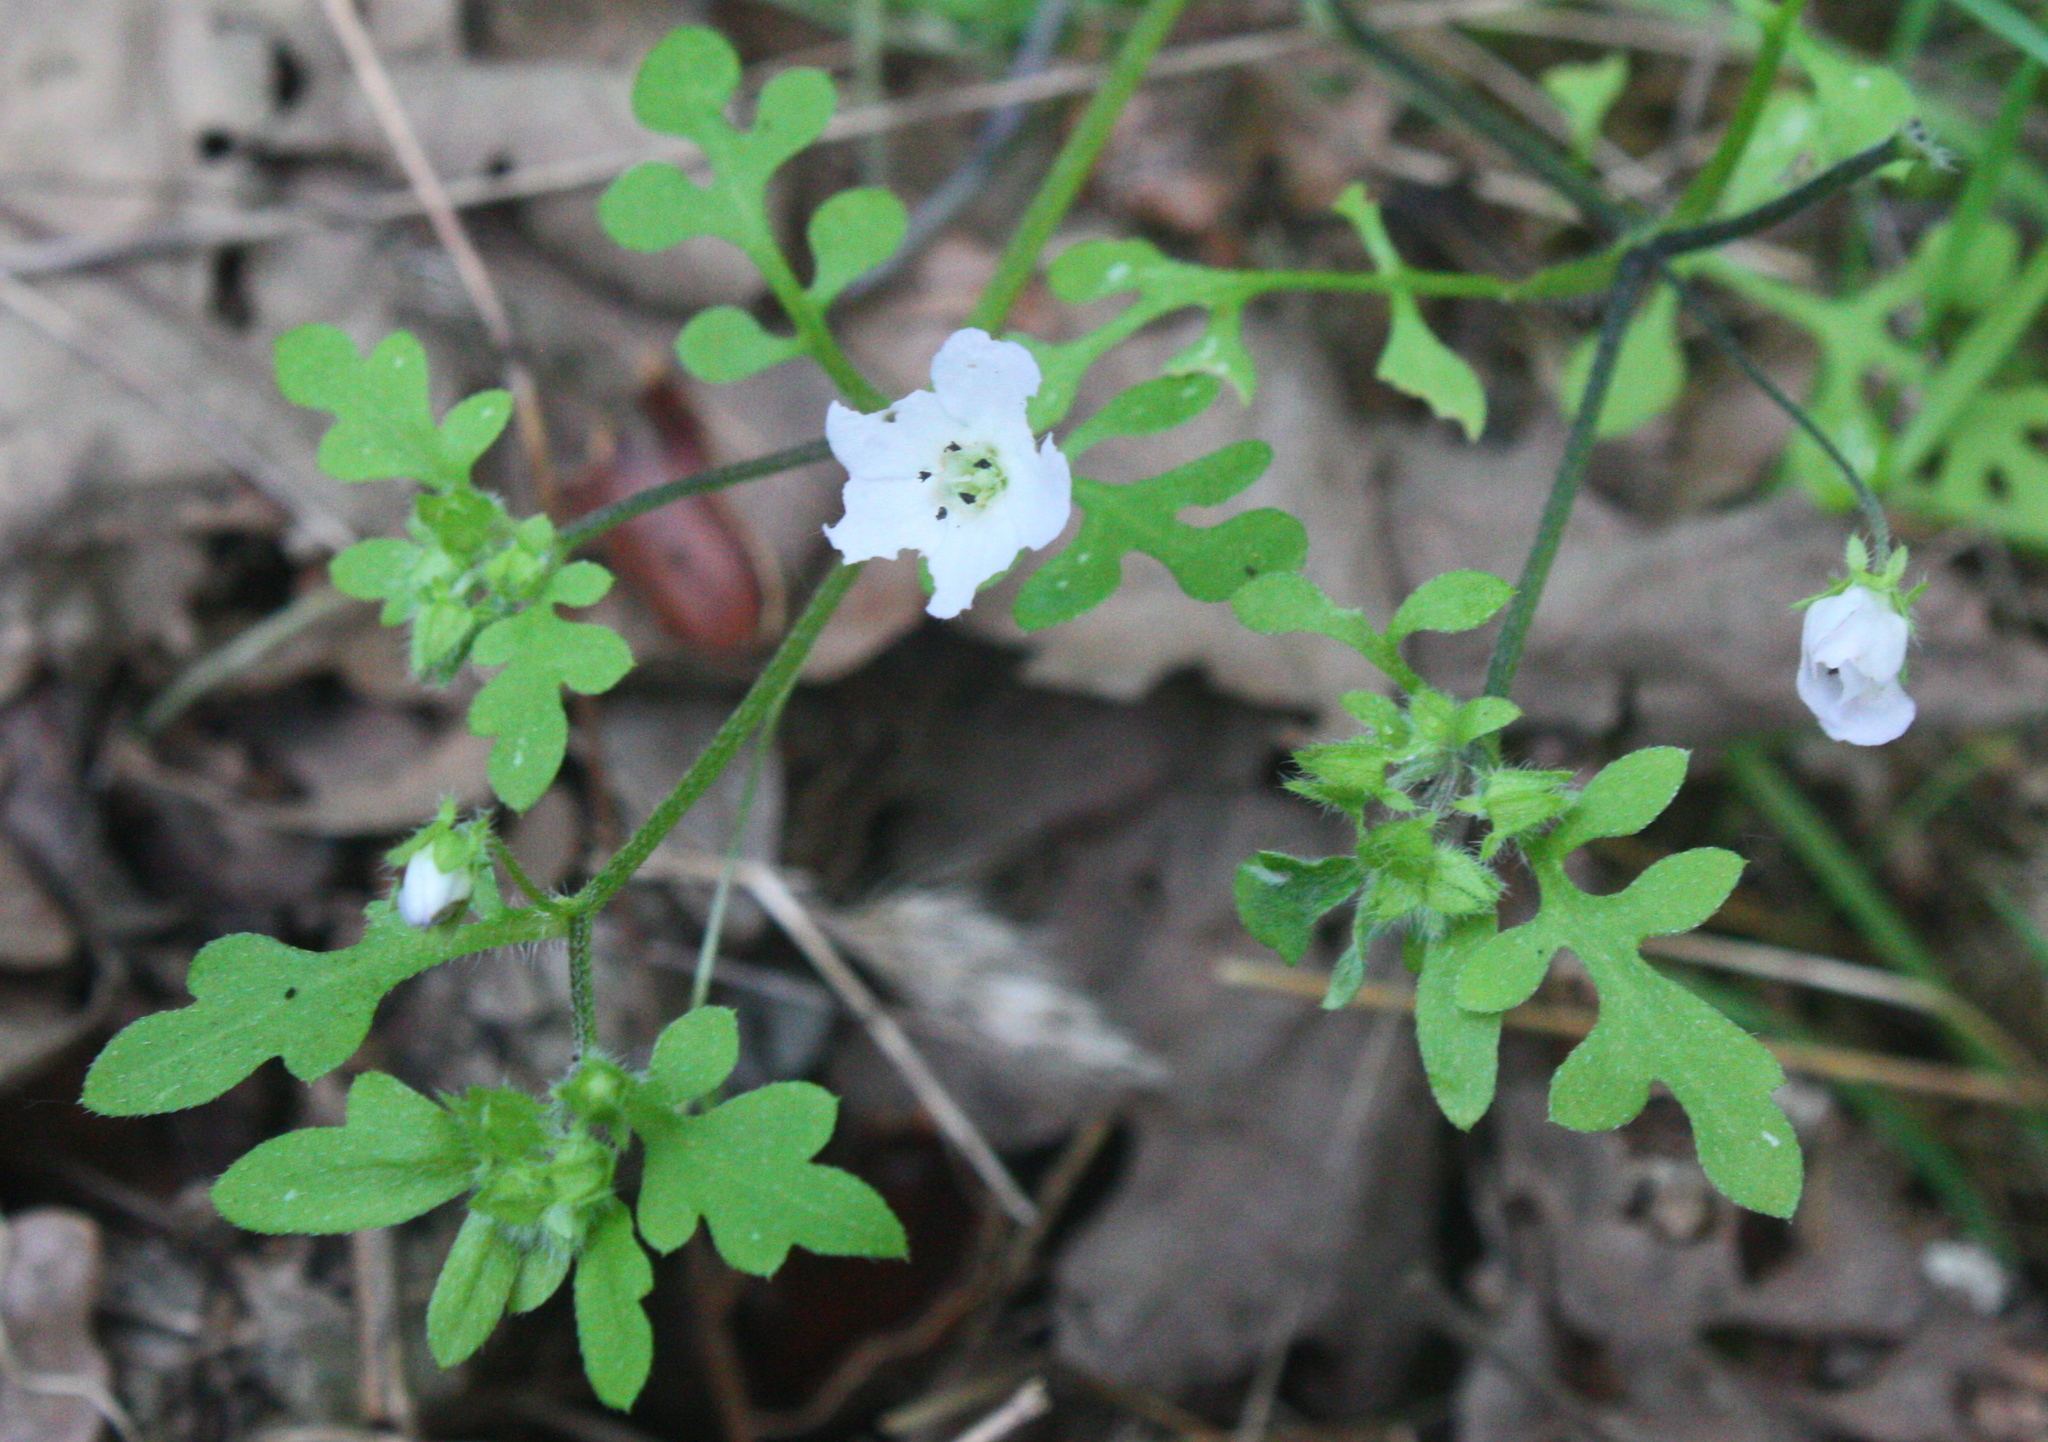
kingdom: Plantae
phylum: Tracheophyta
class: Magnoliopsida
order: Boraginales
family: Hydrophyllaceae
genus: Nemophila
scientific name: Nemophila heterophylla
